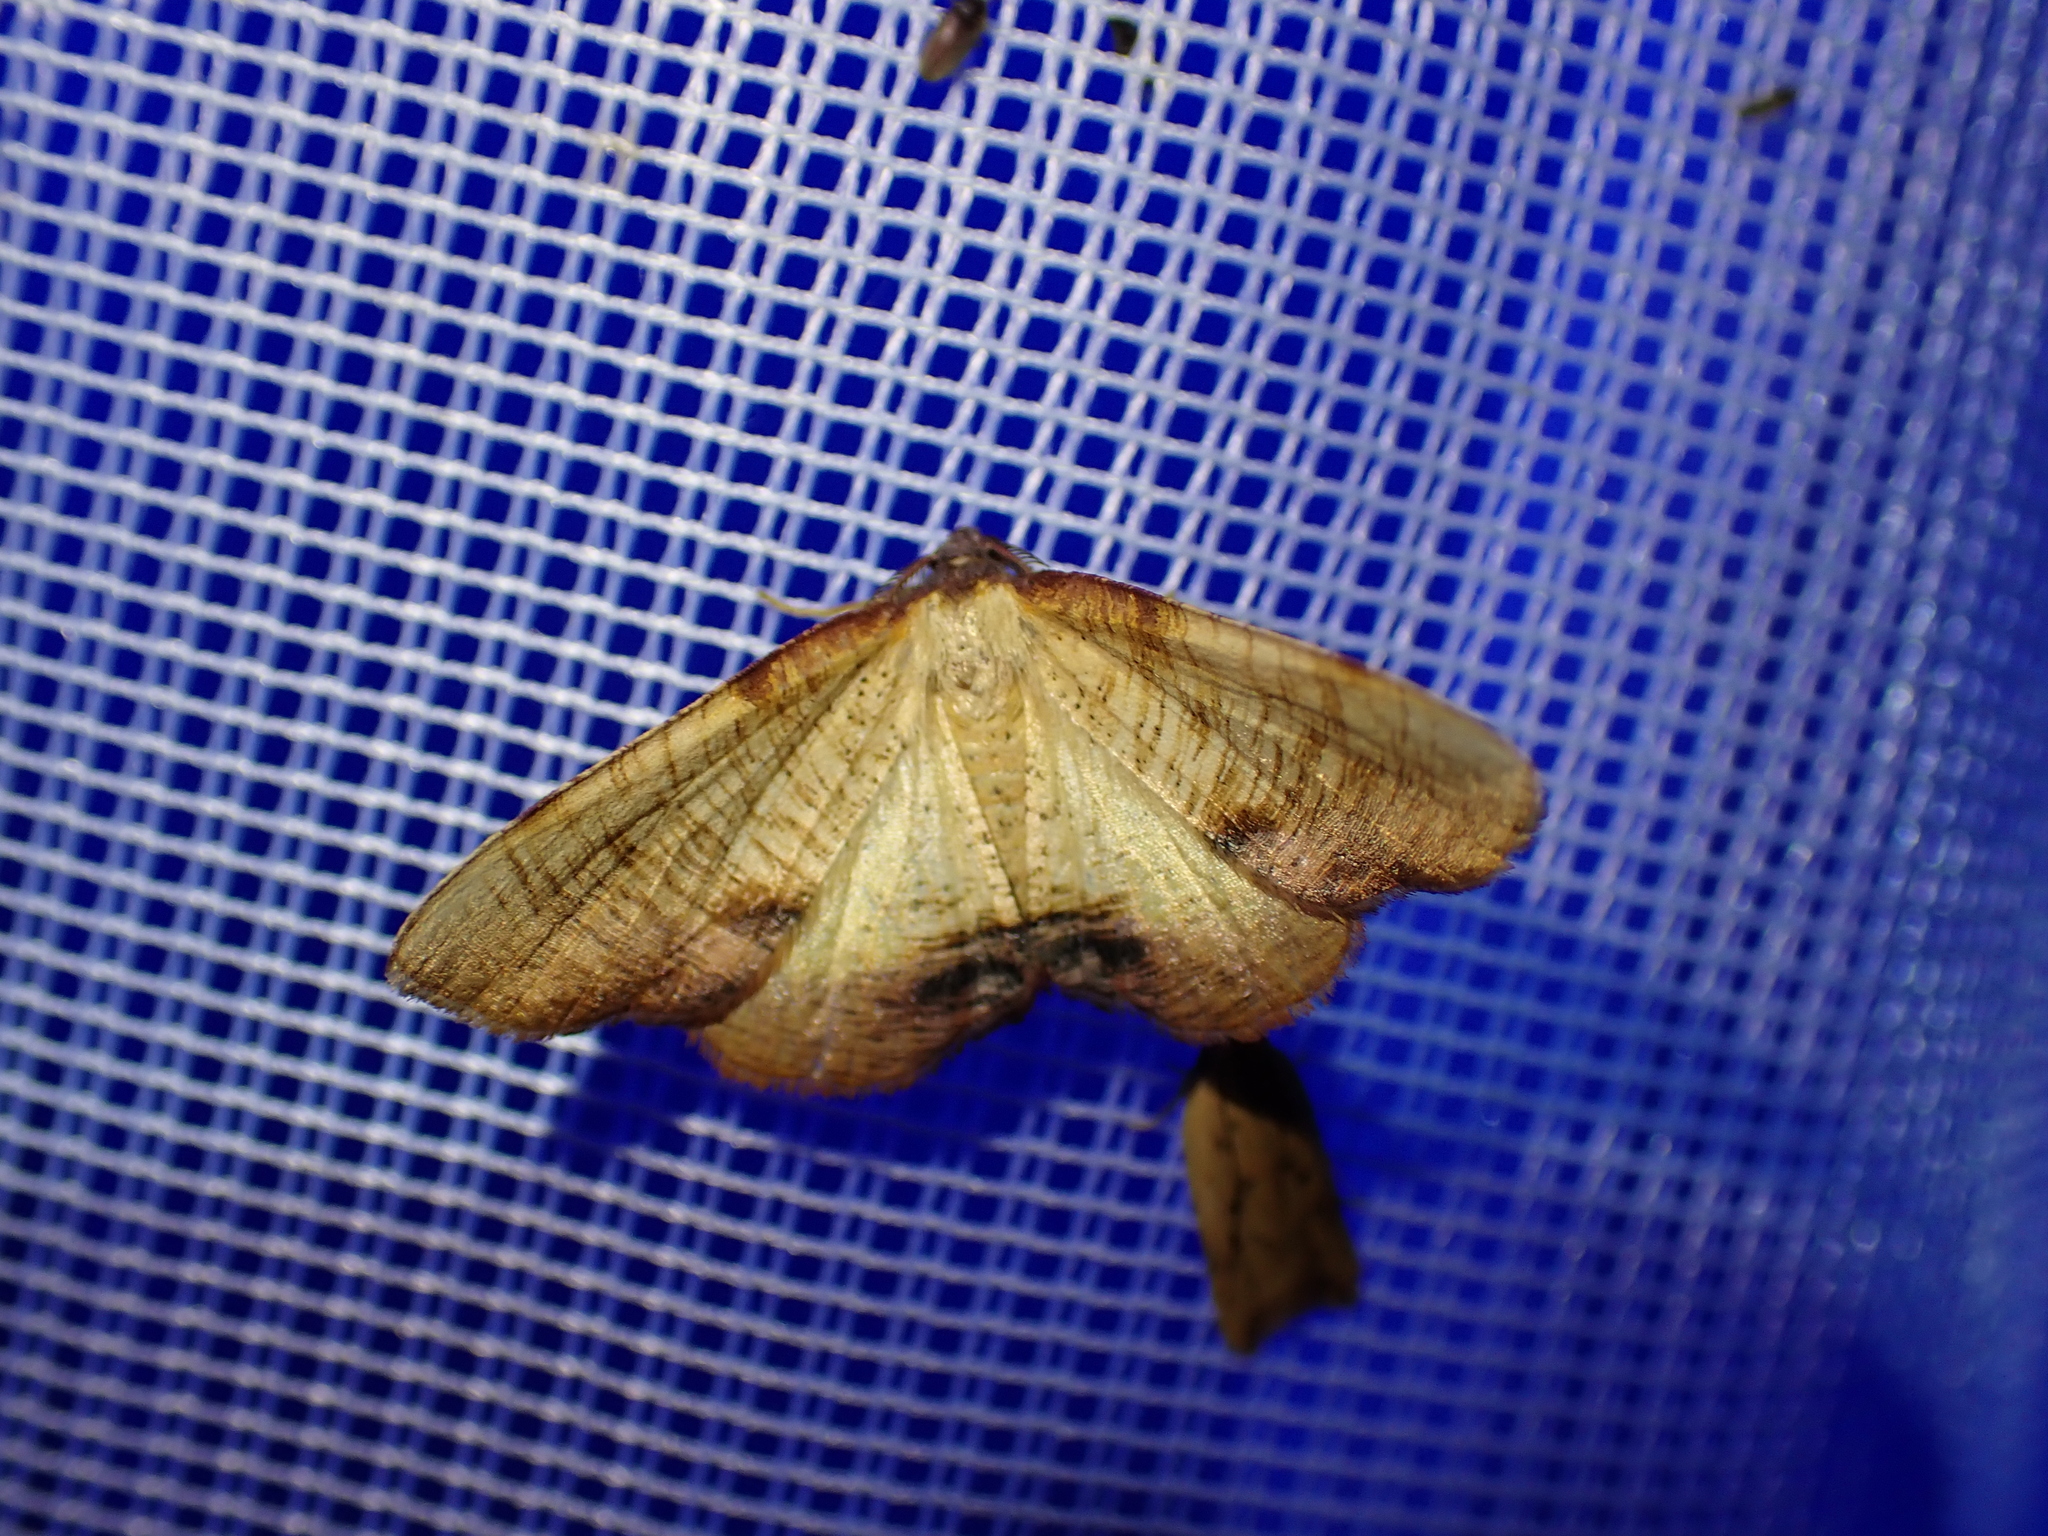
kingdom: Animalia
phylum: Arthropoda
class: Insecta
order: Lepidoptera
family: Geometridae
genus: Plagodis
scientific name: Plagodis dolabraria
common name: Scorched wing
